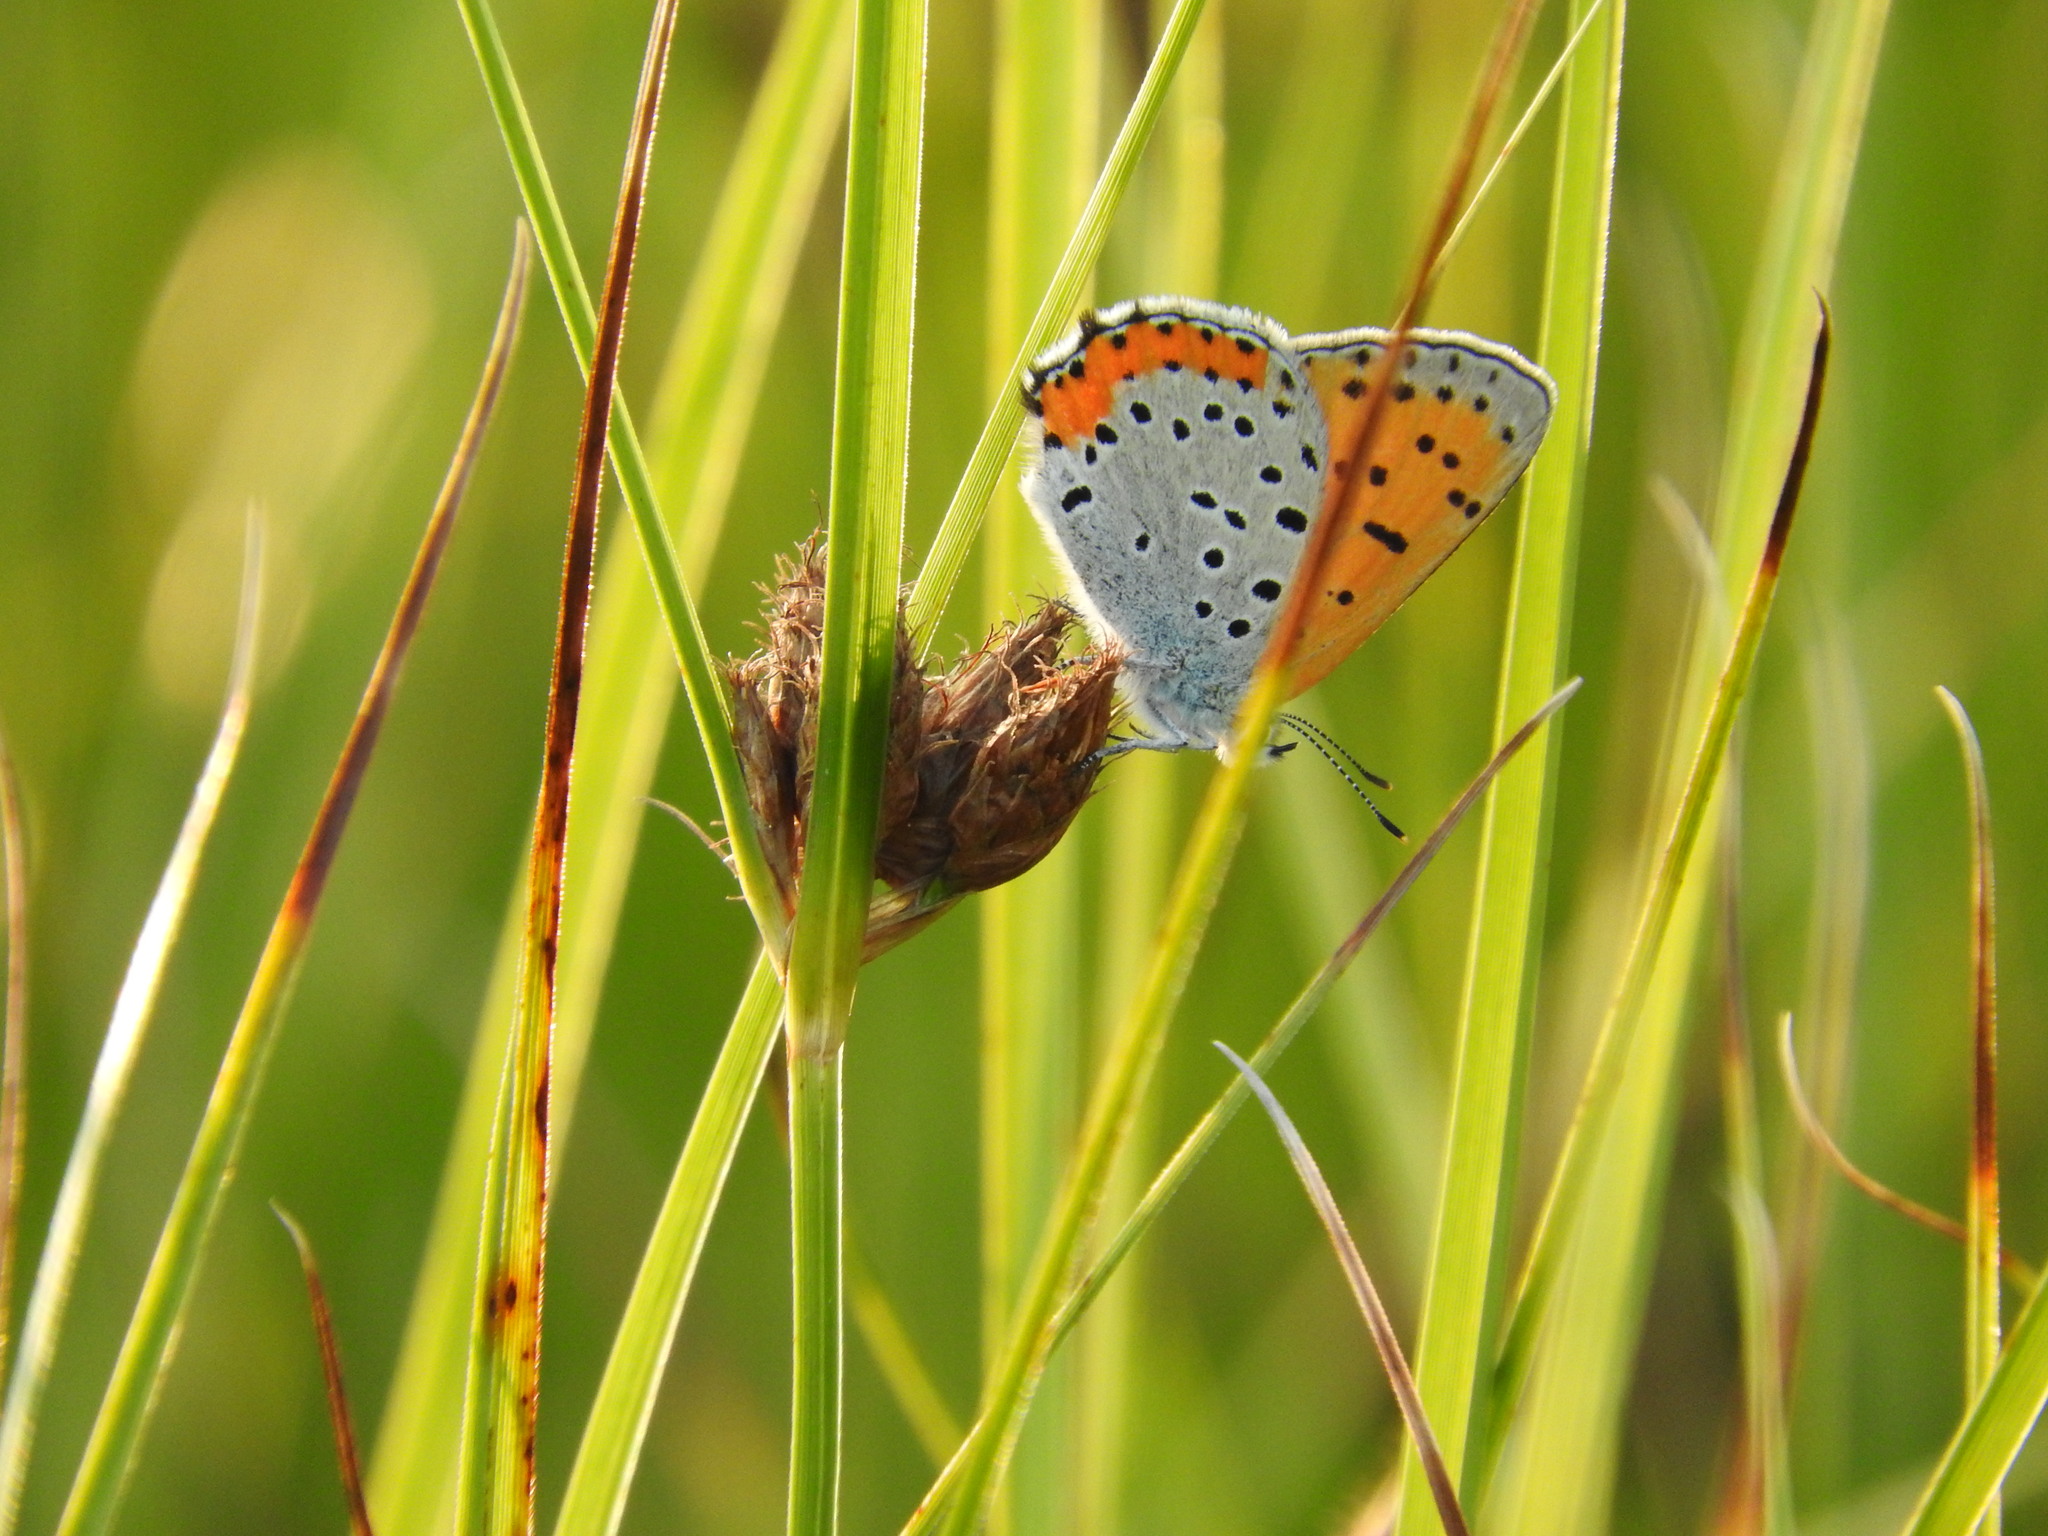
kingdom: Animalia
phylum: Arthropoda
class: Insecta
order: Lepidoptera
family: Lycaenidae
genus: Tharsalea
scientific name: Tharsalea hyllus
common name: Bronze copper
